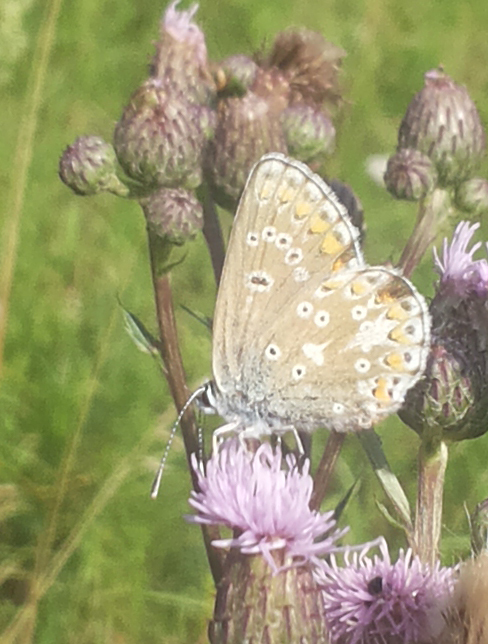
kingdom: Animalia
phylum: Arthropoda
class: Insecta
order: Lepidoptera
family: Lycaenidae
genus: Aricia
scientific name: Aricia artaxerxes
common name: Northern brown argus
